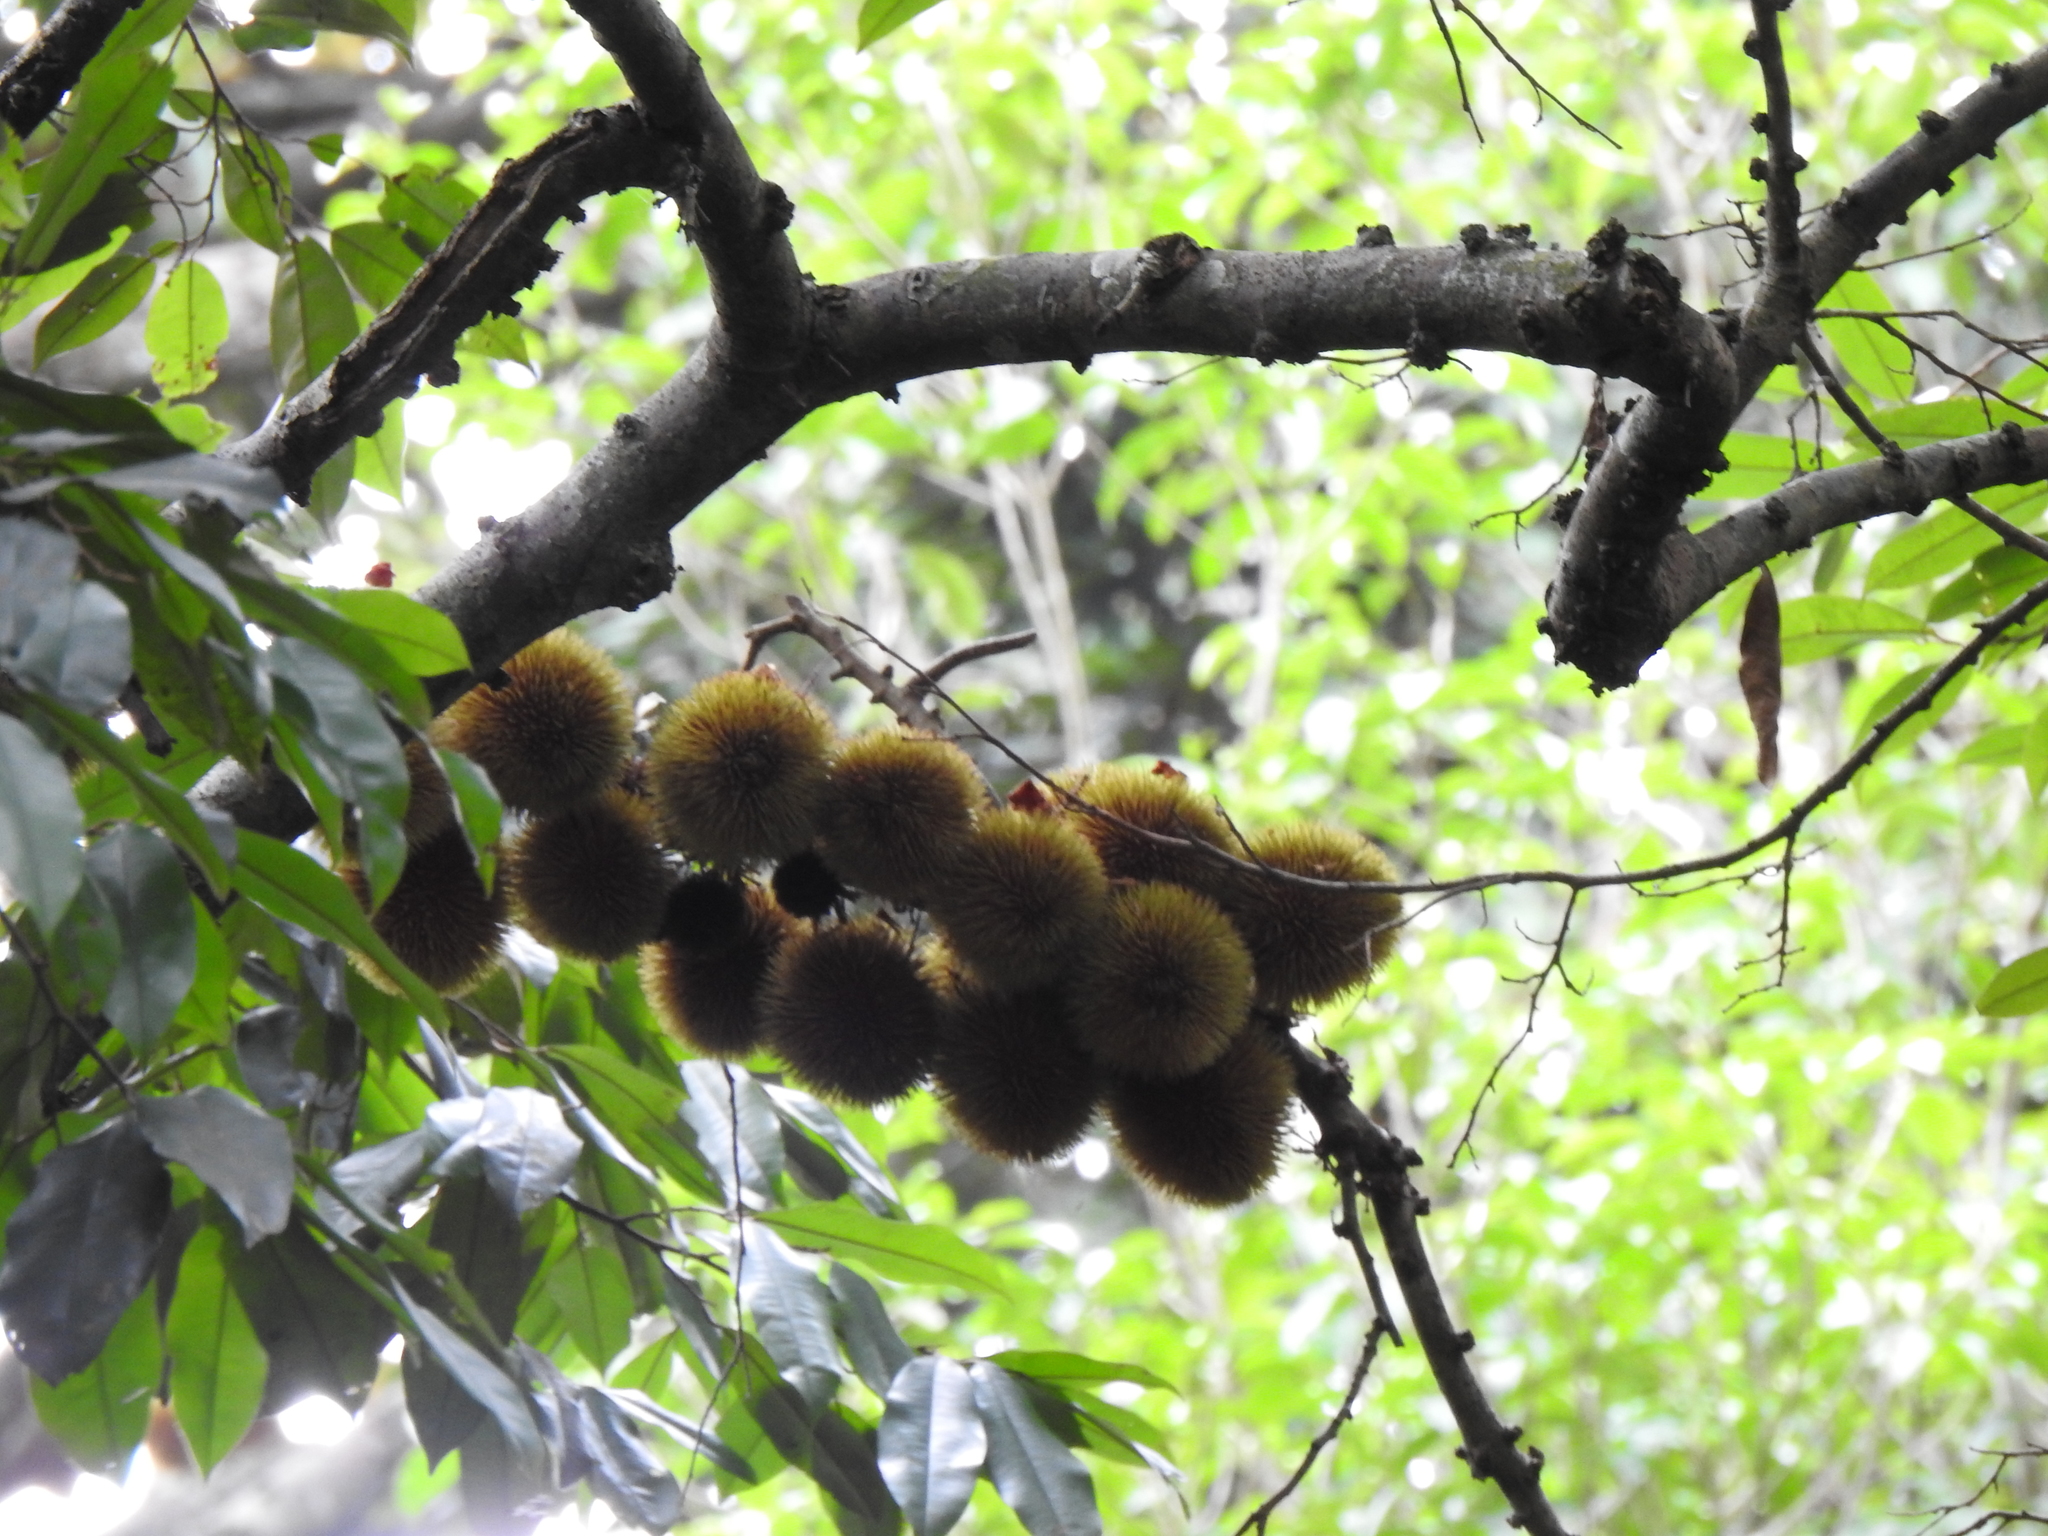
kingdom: Plantae
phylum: Tracheophyta
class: Magnoliopsida
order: Malvales
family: Malvaceae
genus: Durio
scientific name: Durio zibethinus
